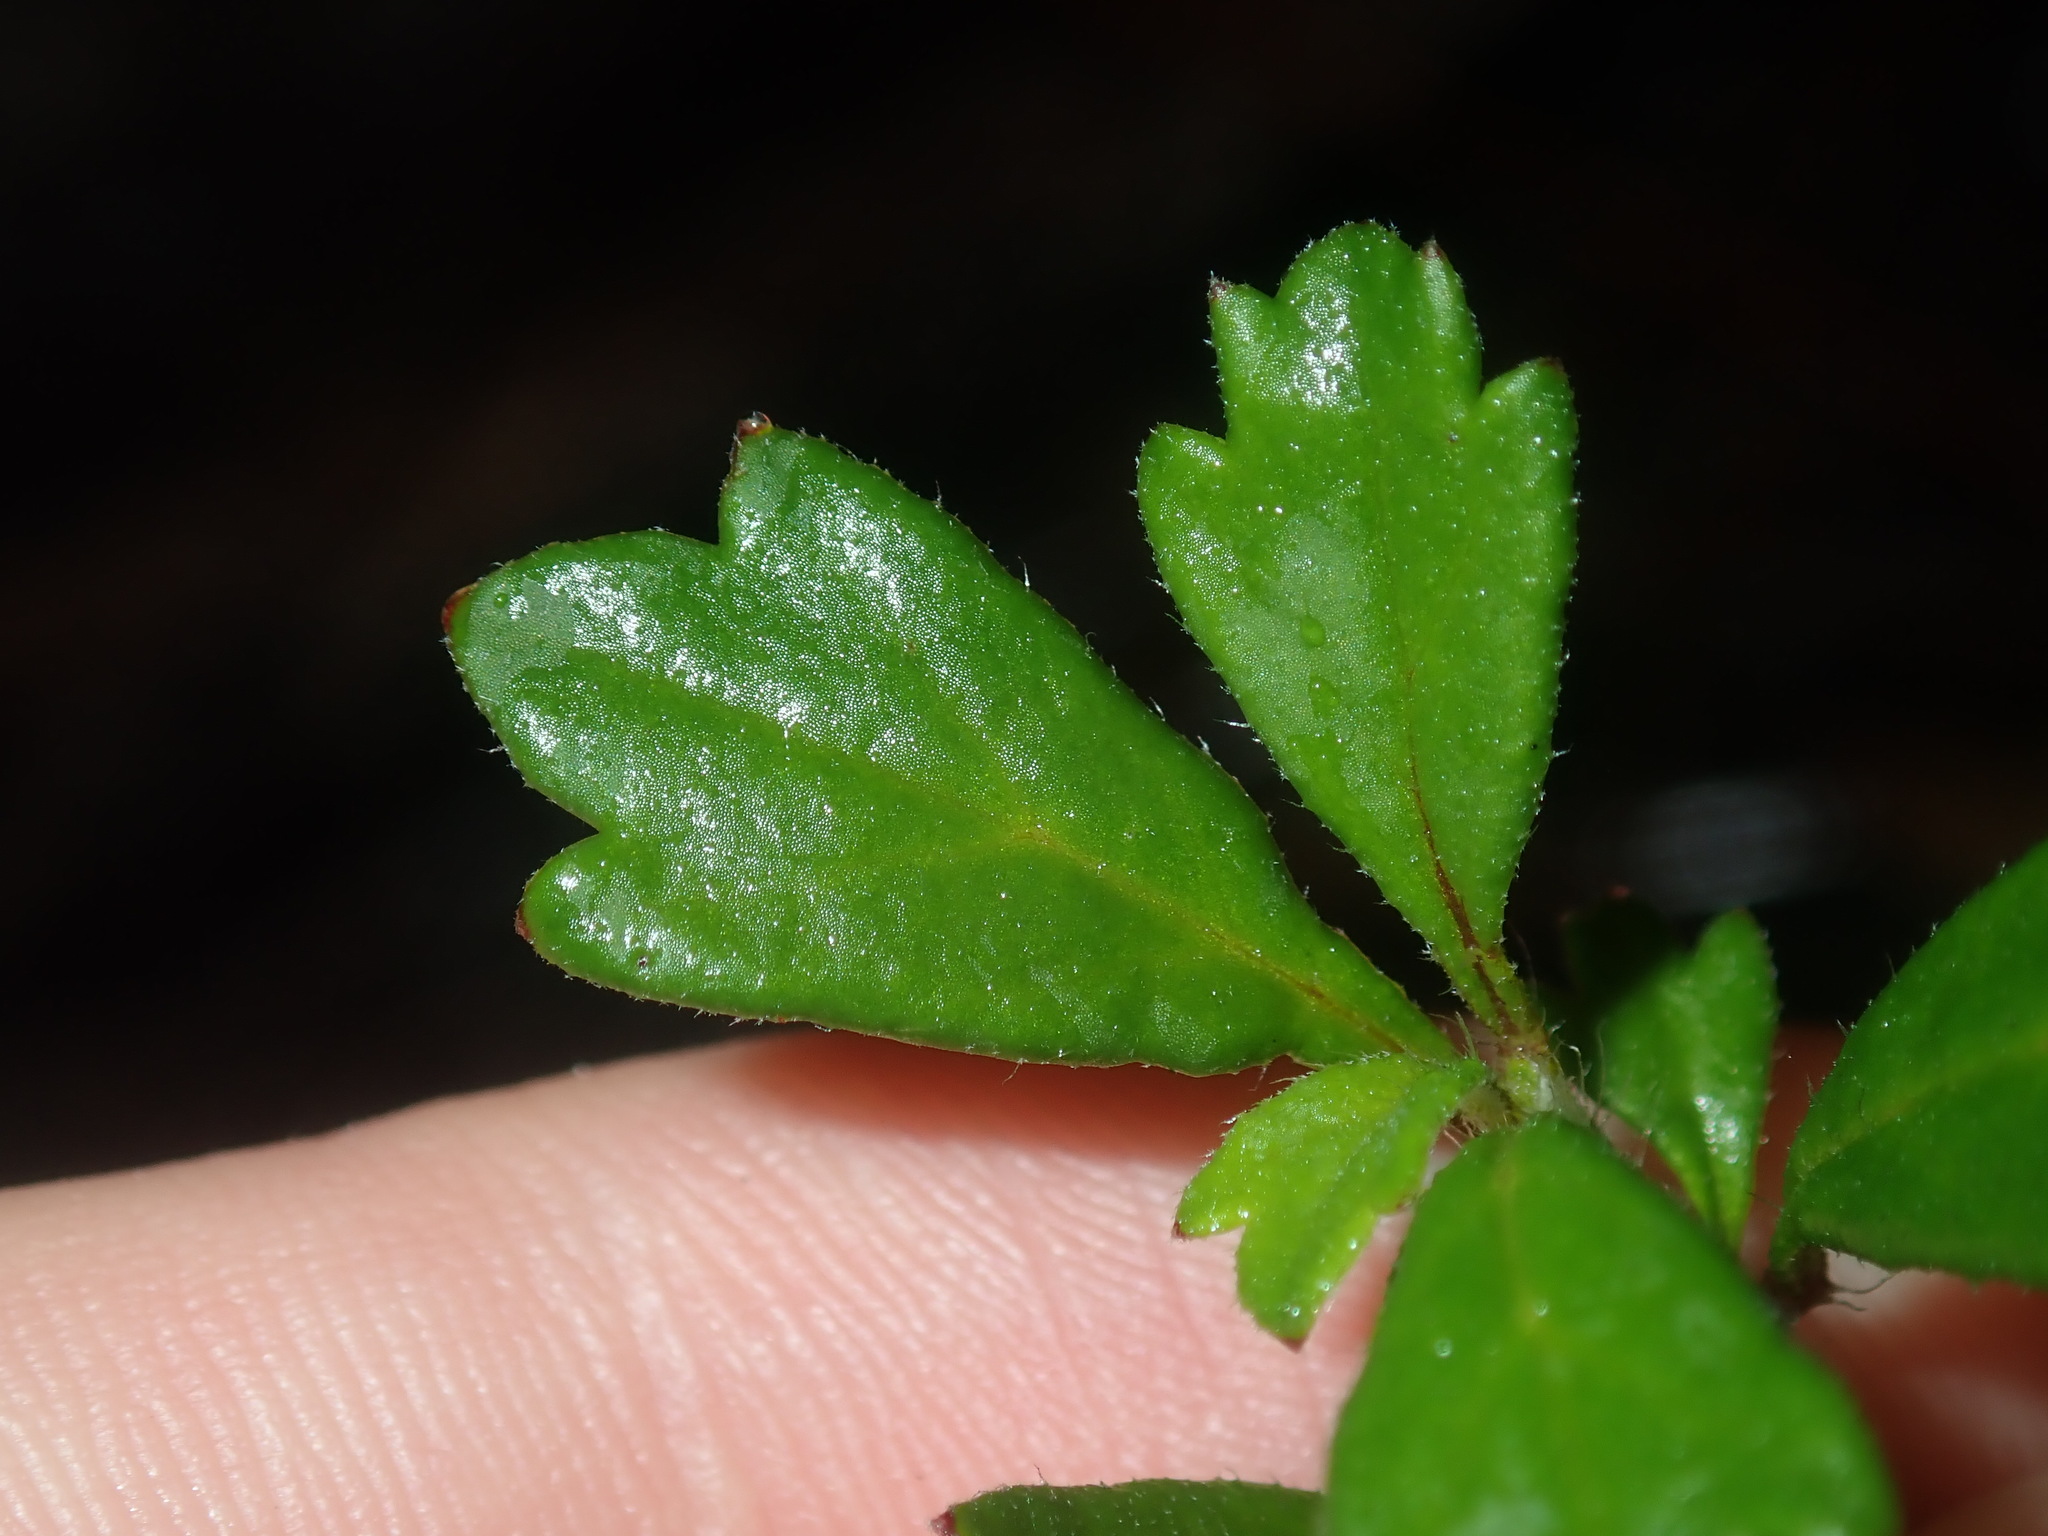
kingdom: Plantae
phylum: Tracheophyta
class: Magnoliopsida
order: Apiales
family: Apiaceae
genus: Xanthosia
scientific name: Xanthosia tridentata
